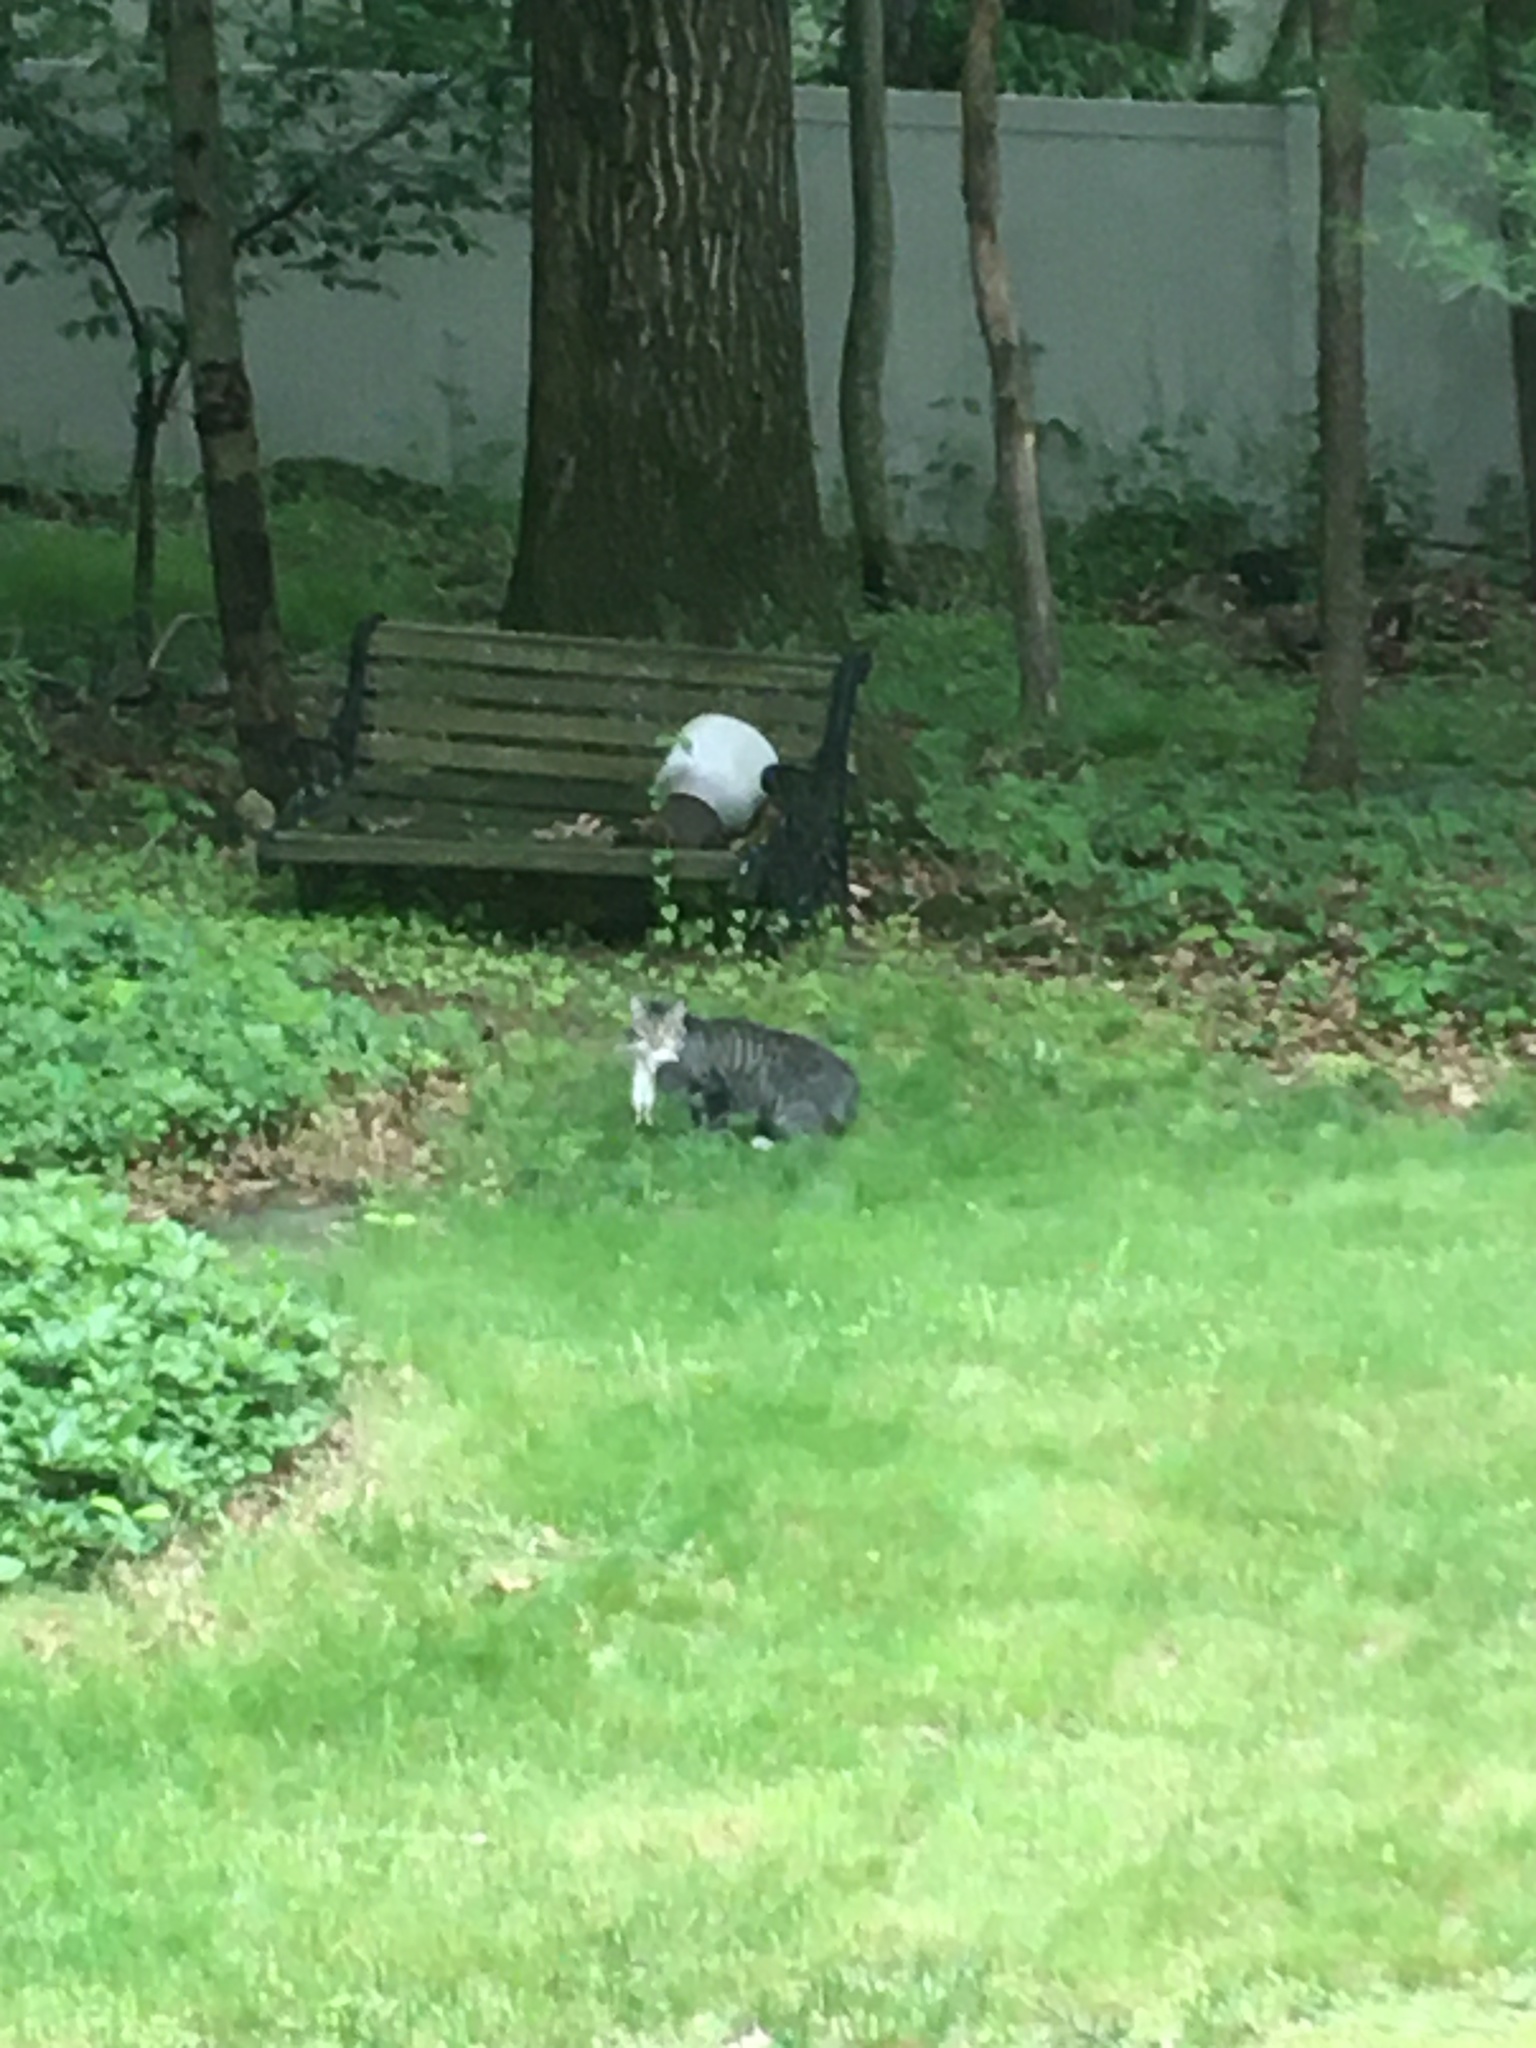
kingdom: Animalia
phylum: Chordata
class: Mammalia
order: Carnivora
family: Felidae
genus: Felis
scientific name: Felis catus
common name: Domestic cat
